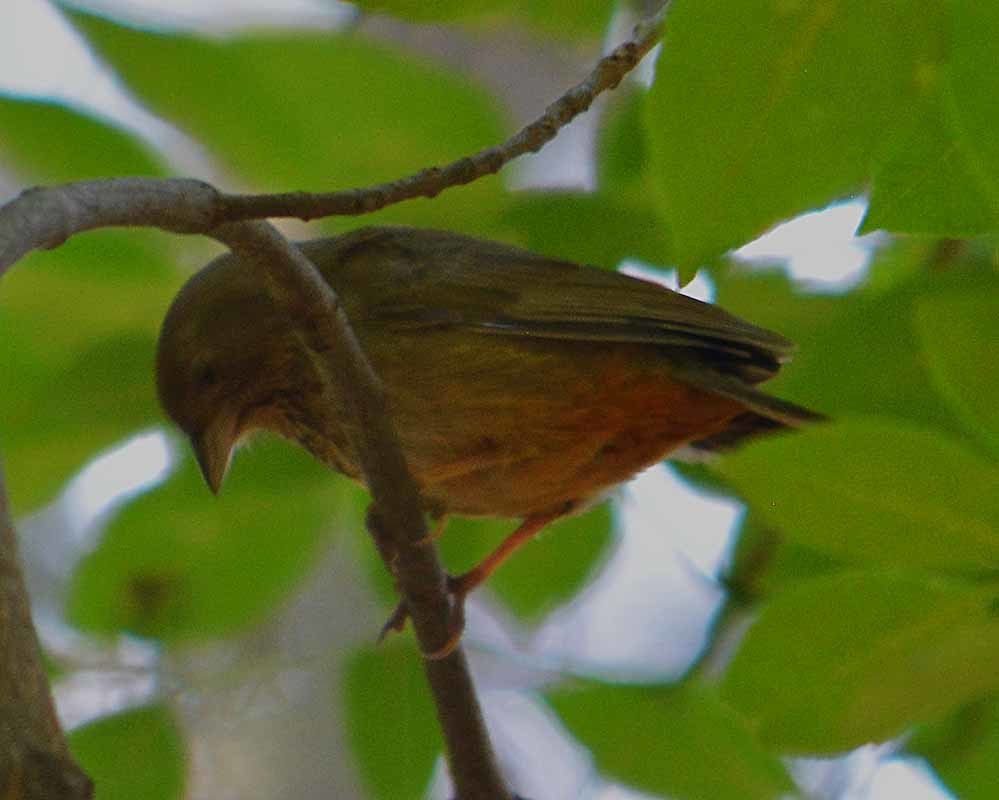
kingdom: Animalia
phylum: Chordata
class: Aves
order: Passeriformes
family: Passerellidae
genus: Melozone
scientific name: Melozone fusca
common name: Canyon towhee
